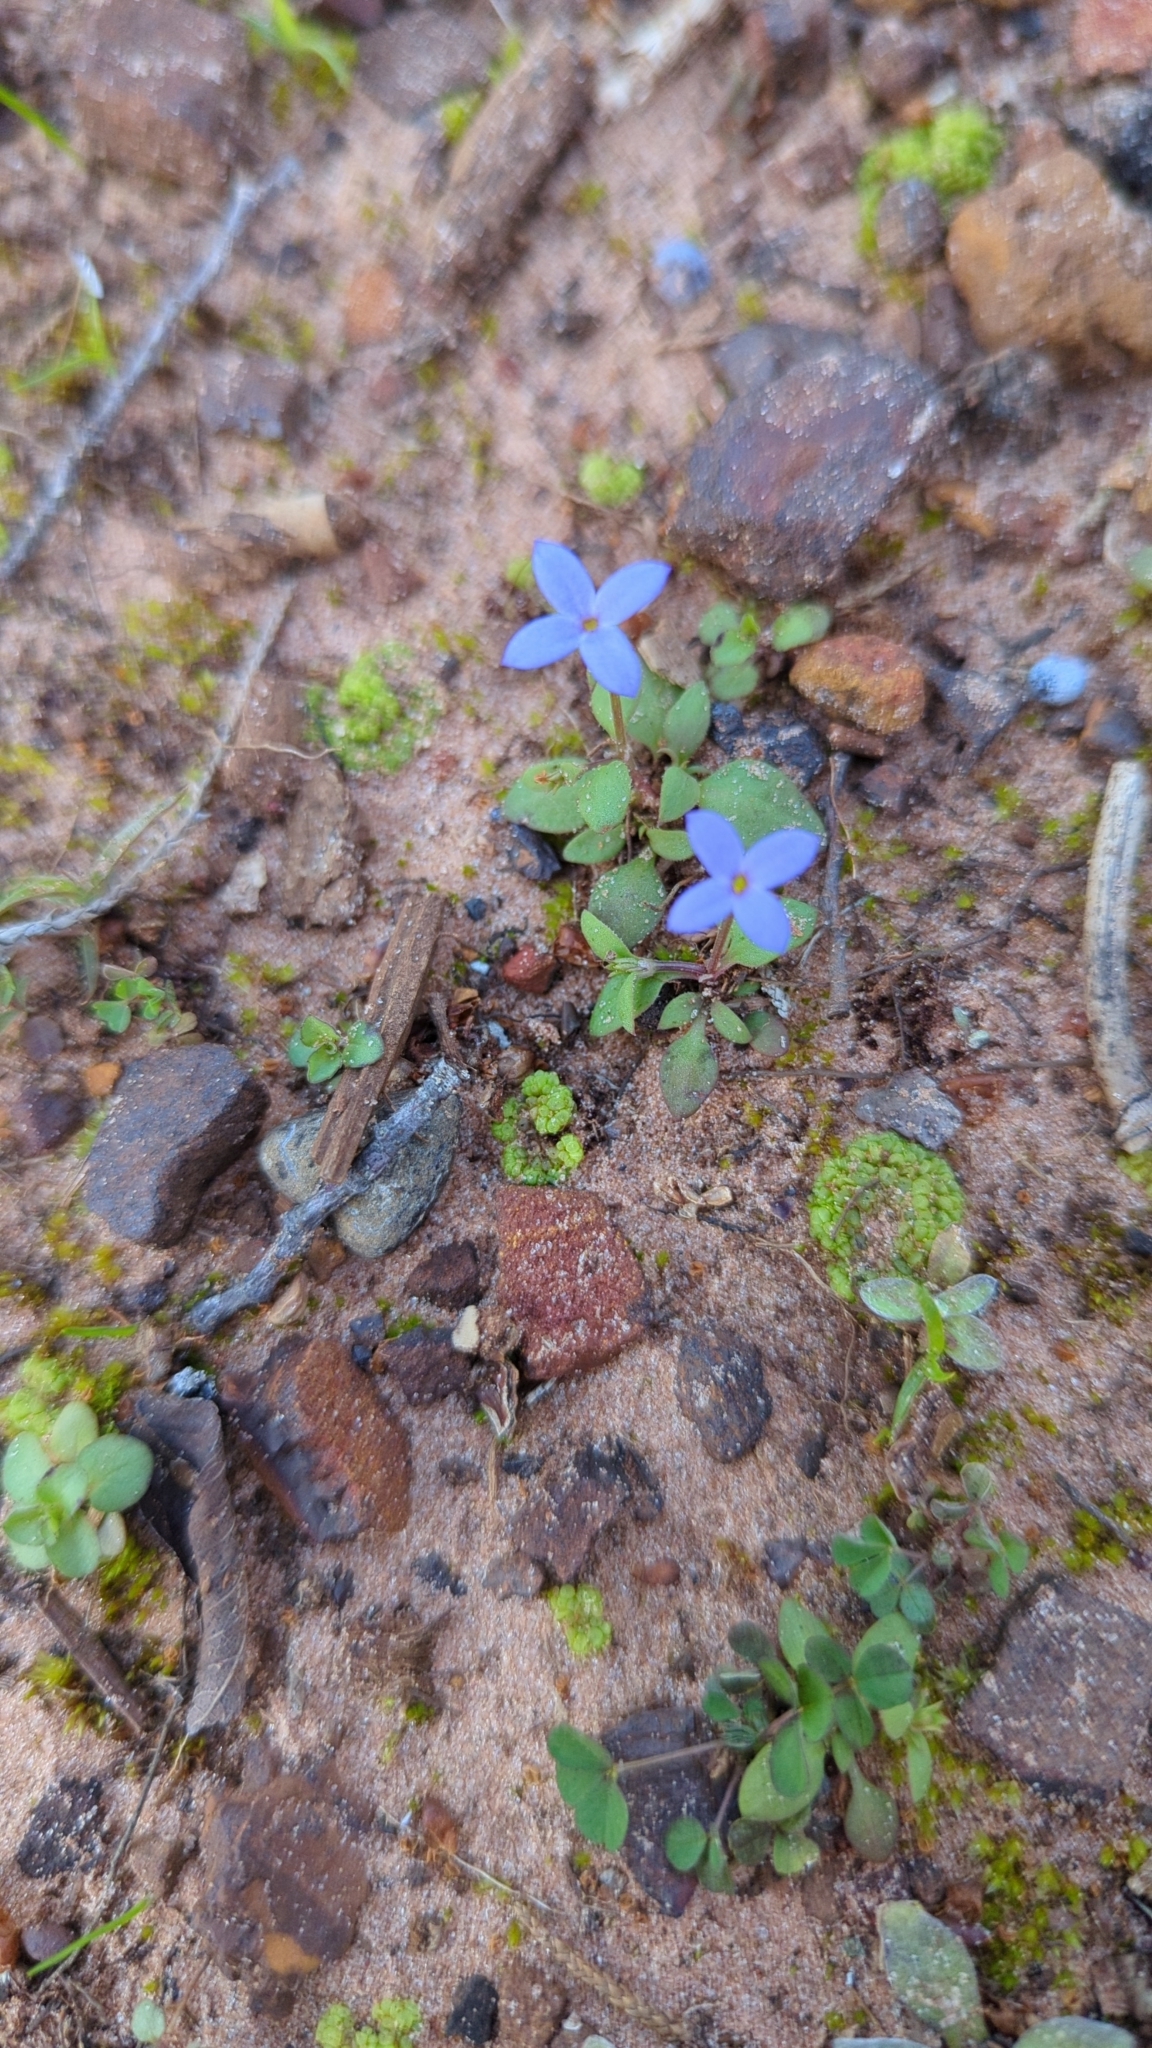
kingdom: Plantae
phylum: Tracheophyta
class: Magnoliopsida
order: Gentianales
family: Rubiaceae
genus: Houstonia
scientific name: Houstonia pusilla
